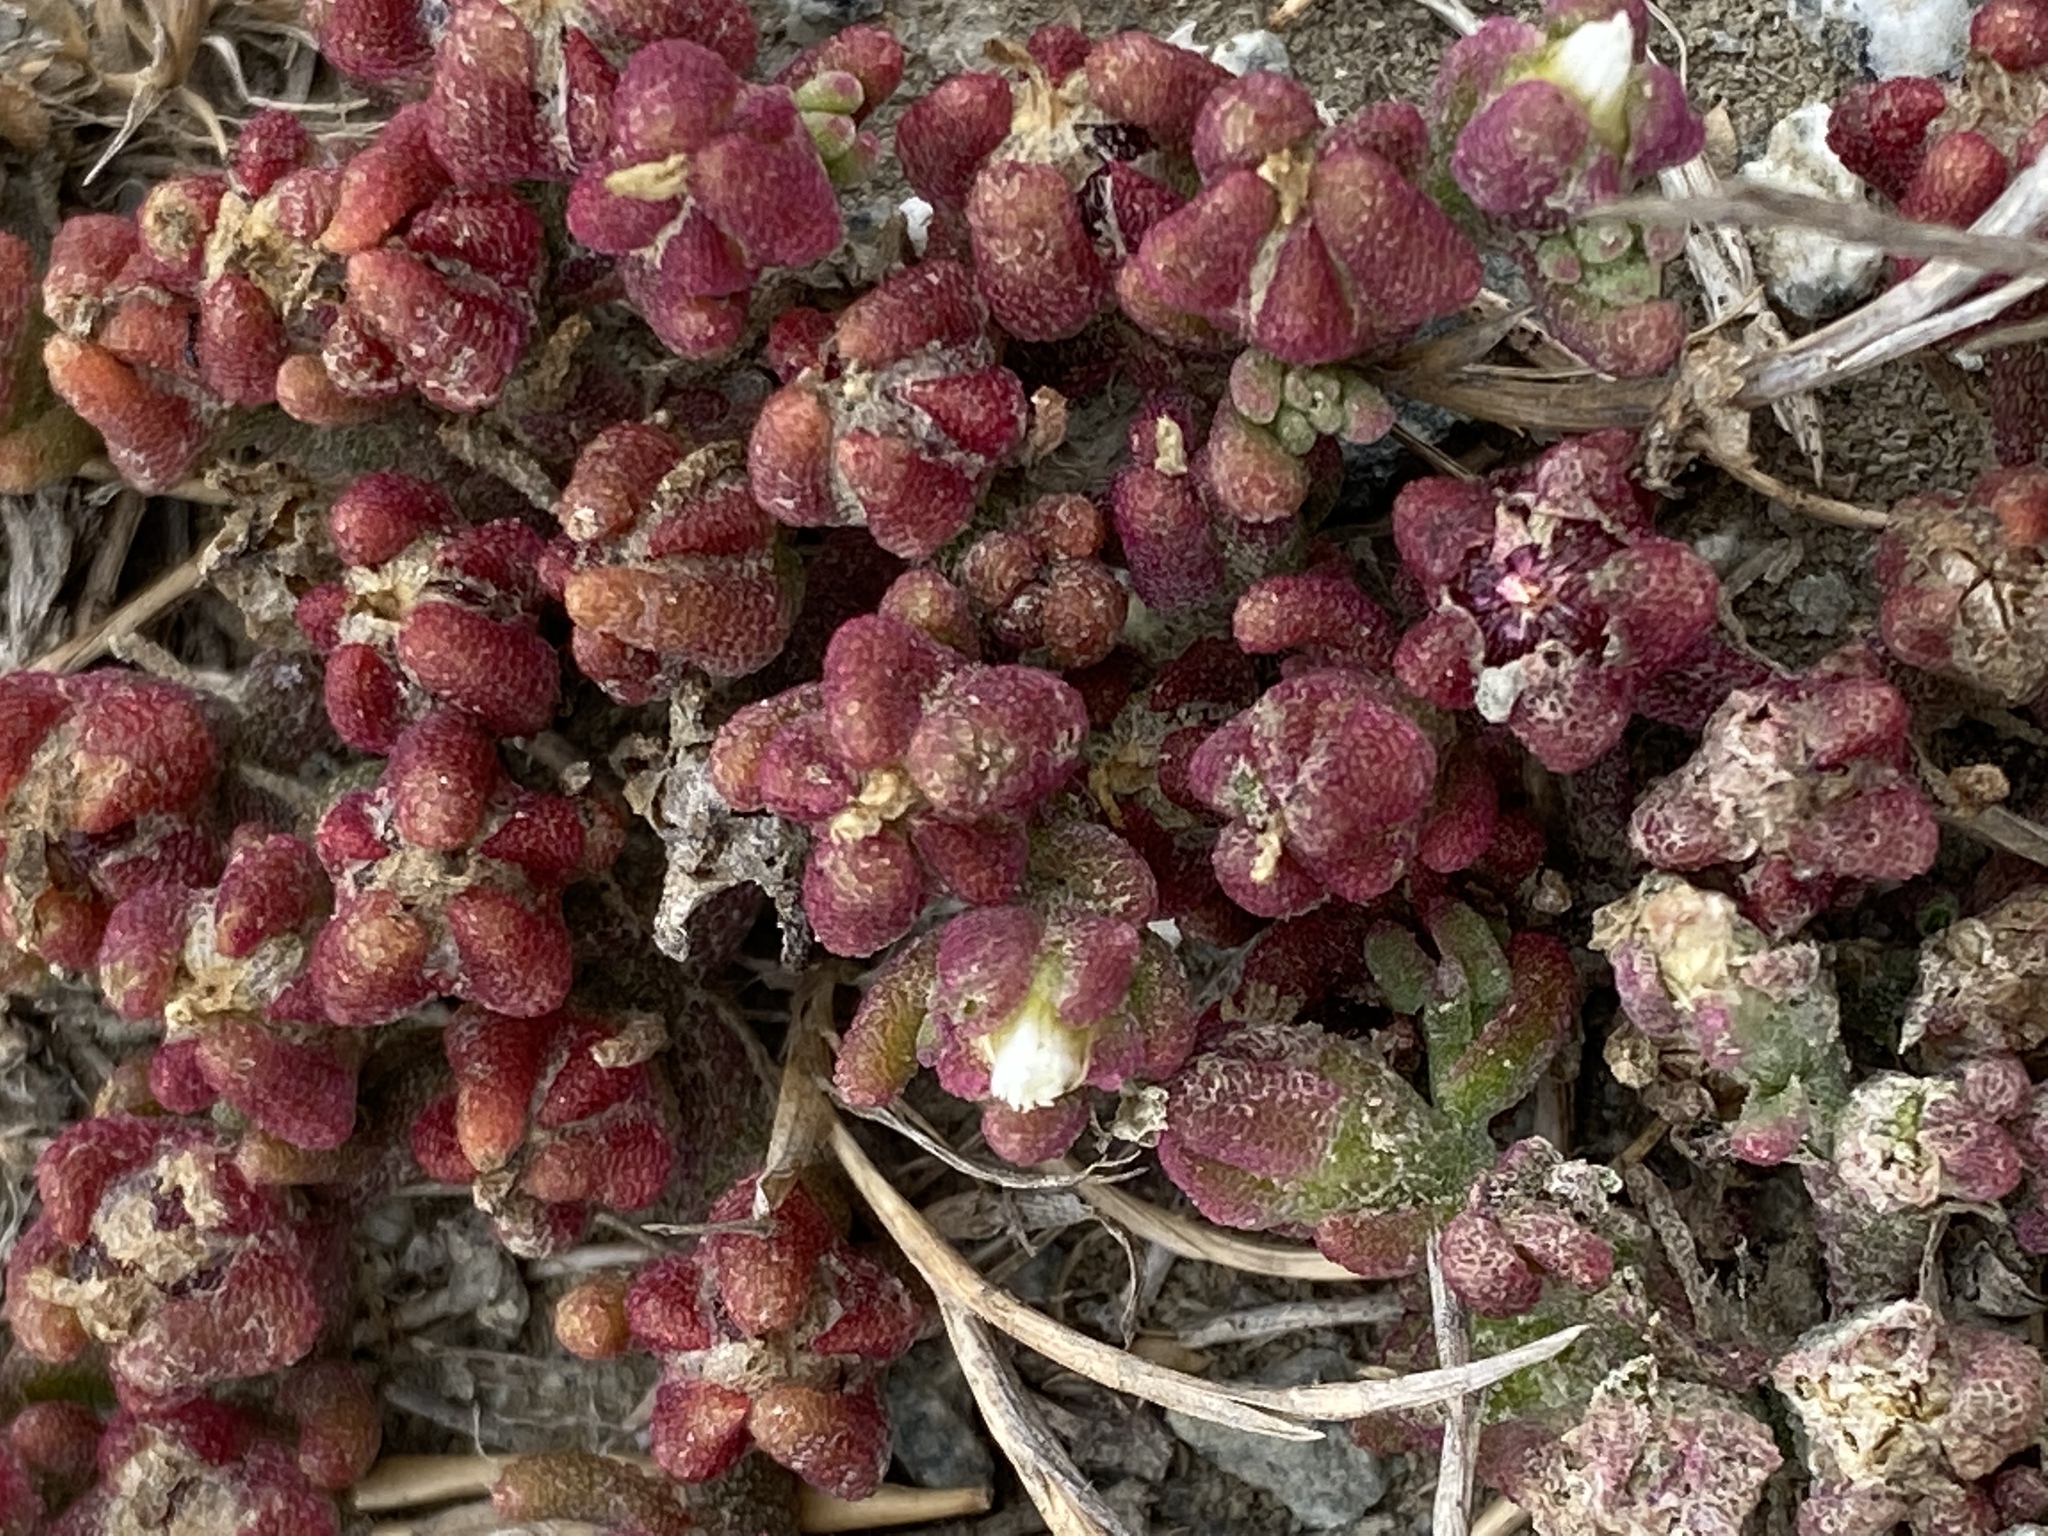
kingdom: Plantae
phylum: Tracheophyta
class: Magnoliopsida
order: Caryophyllales
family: Aizoaceae
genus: Mesembryanthemum
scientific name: Mesembryanthemum nodiflorum
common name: Slenderleaf iceplant
